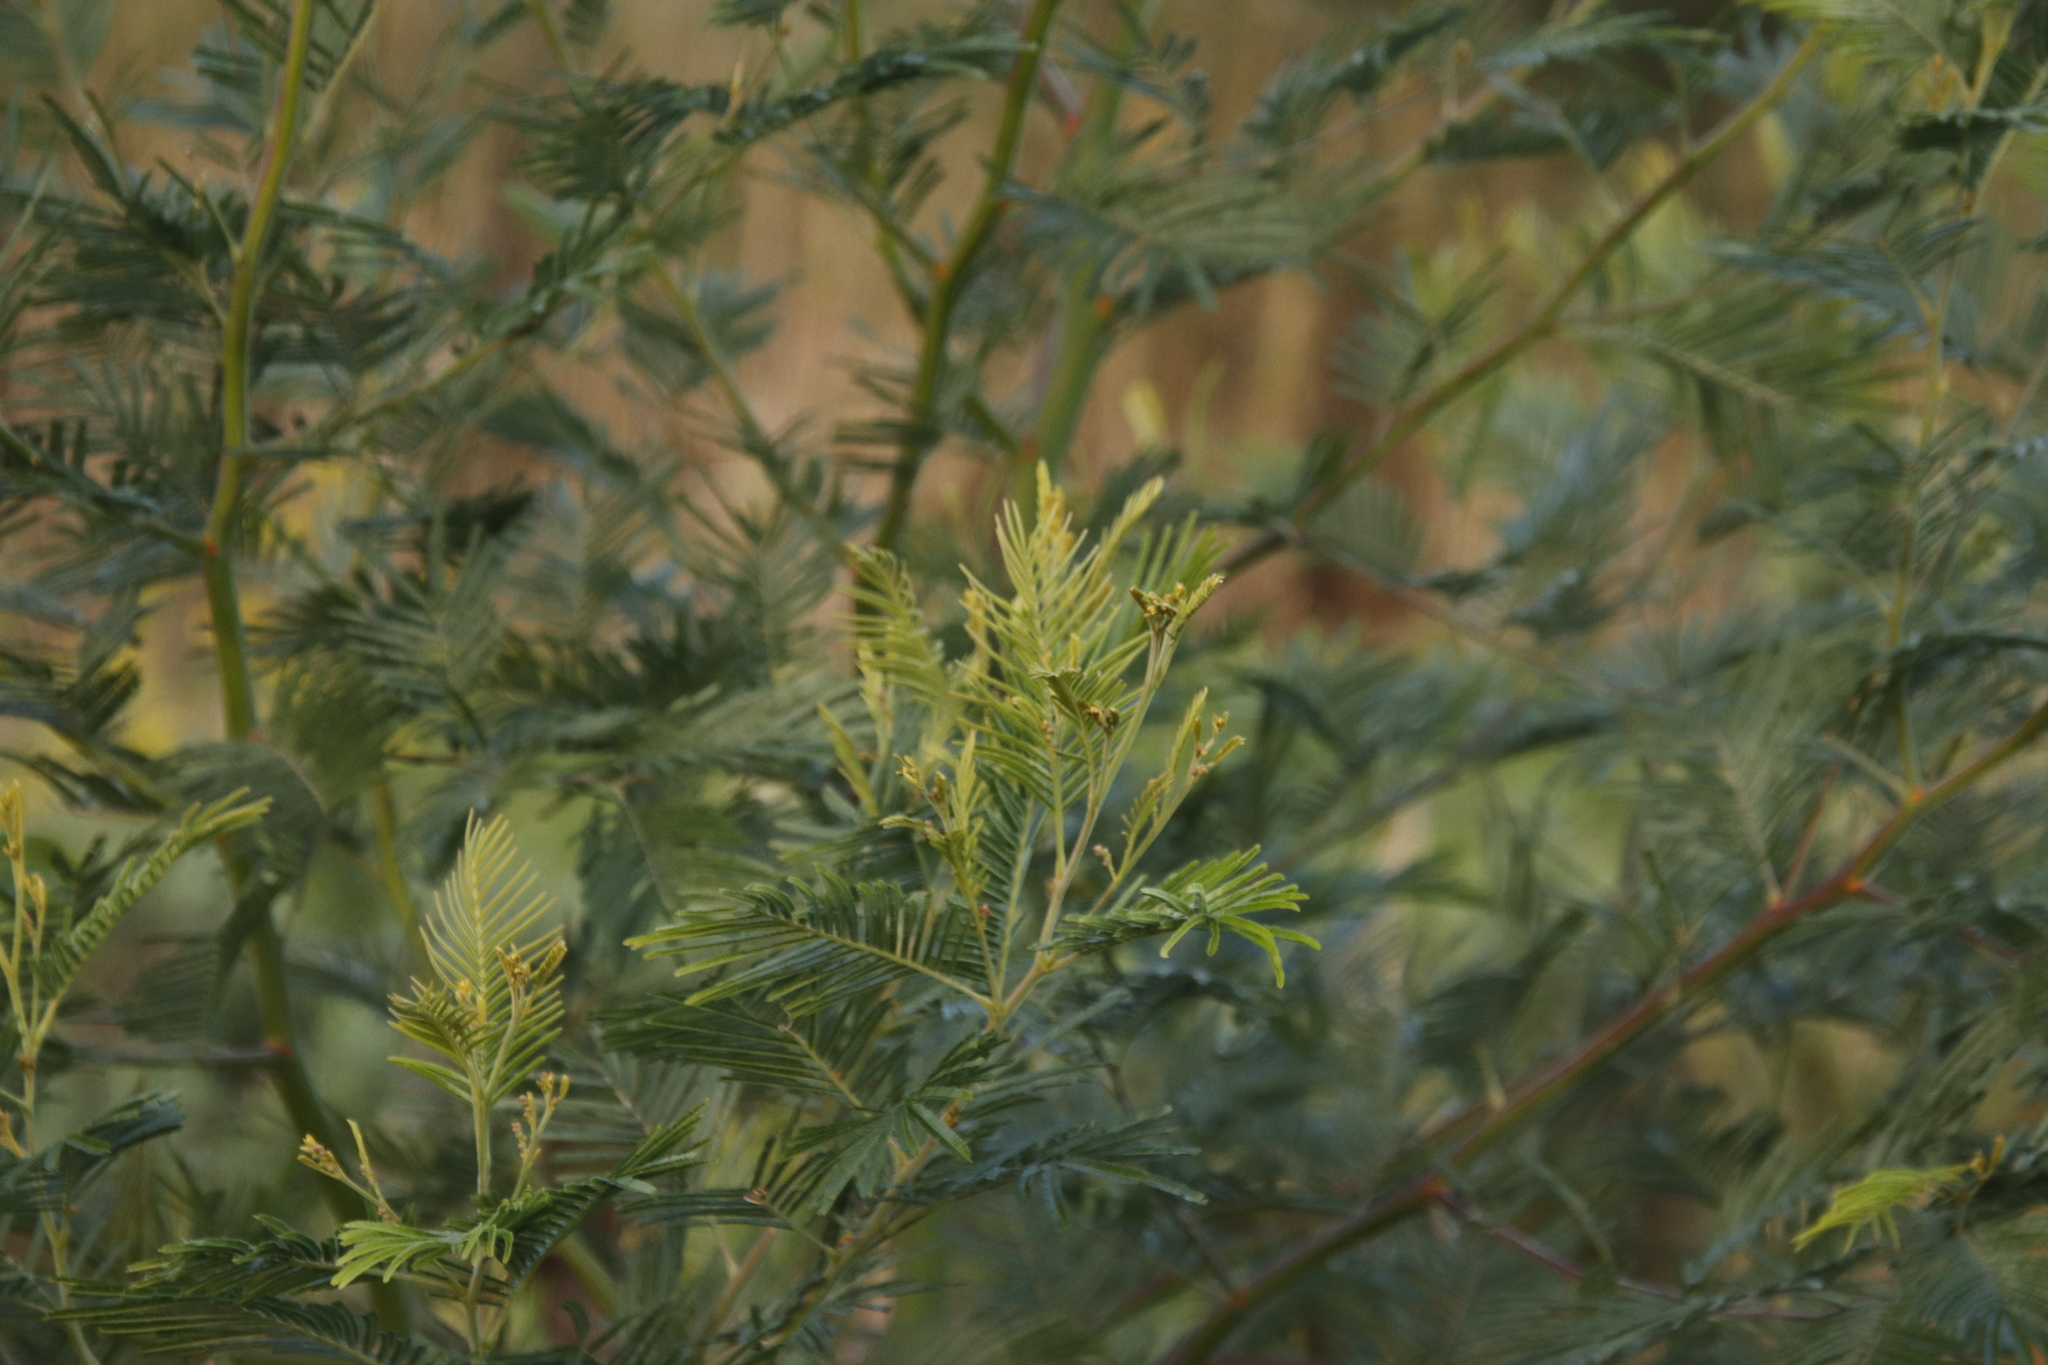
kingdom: Plantae
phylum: Tracheophyta
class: Magnoliopsida
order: Fabales
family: Fabaceae
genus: Acacia
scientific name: Acacia mearnsii
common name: Black wattle
